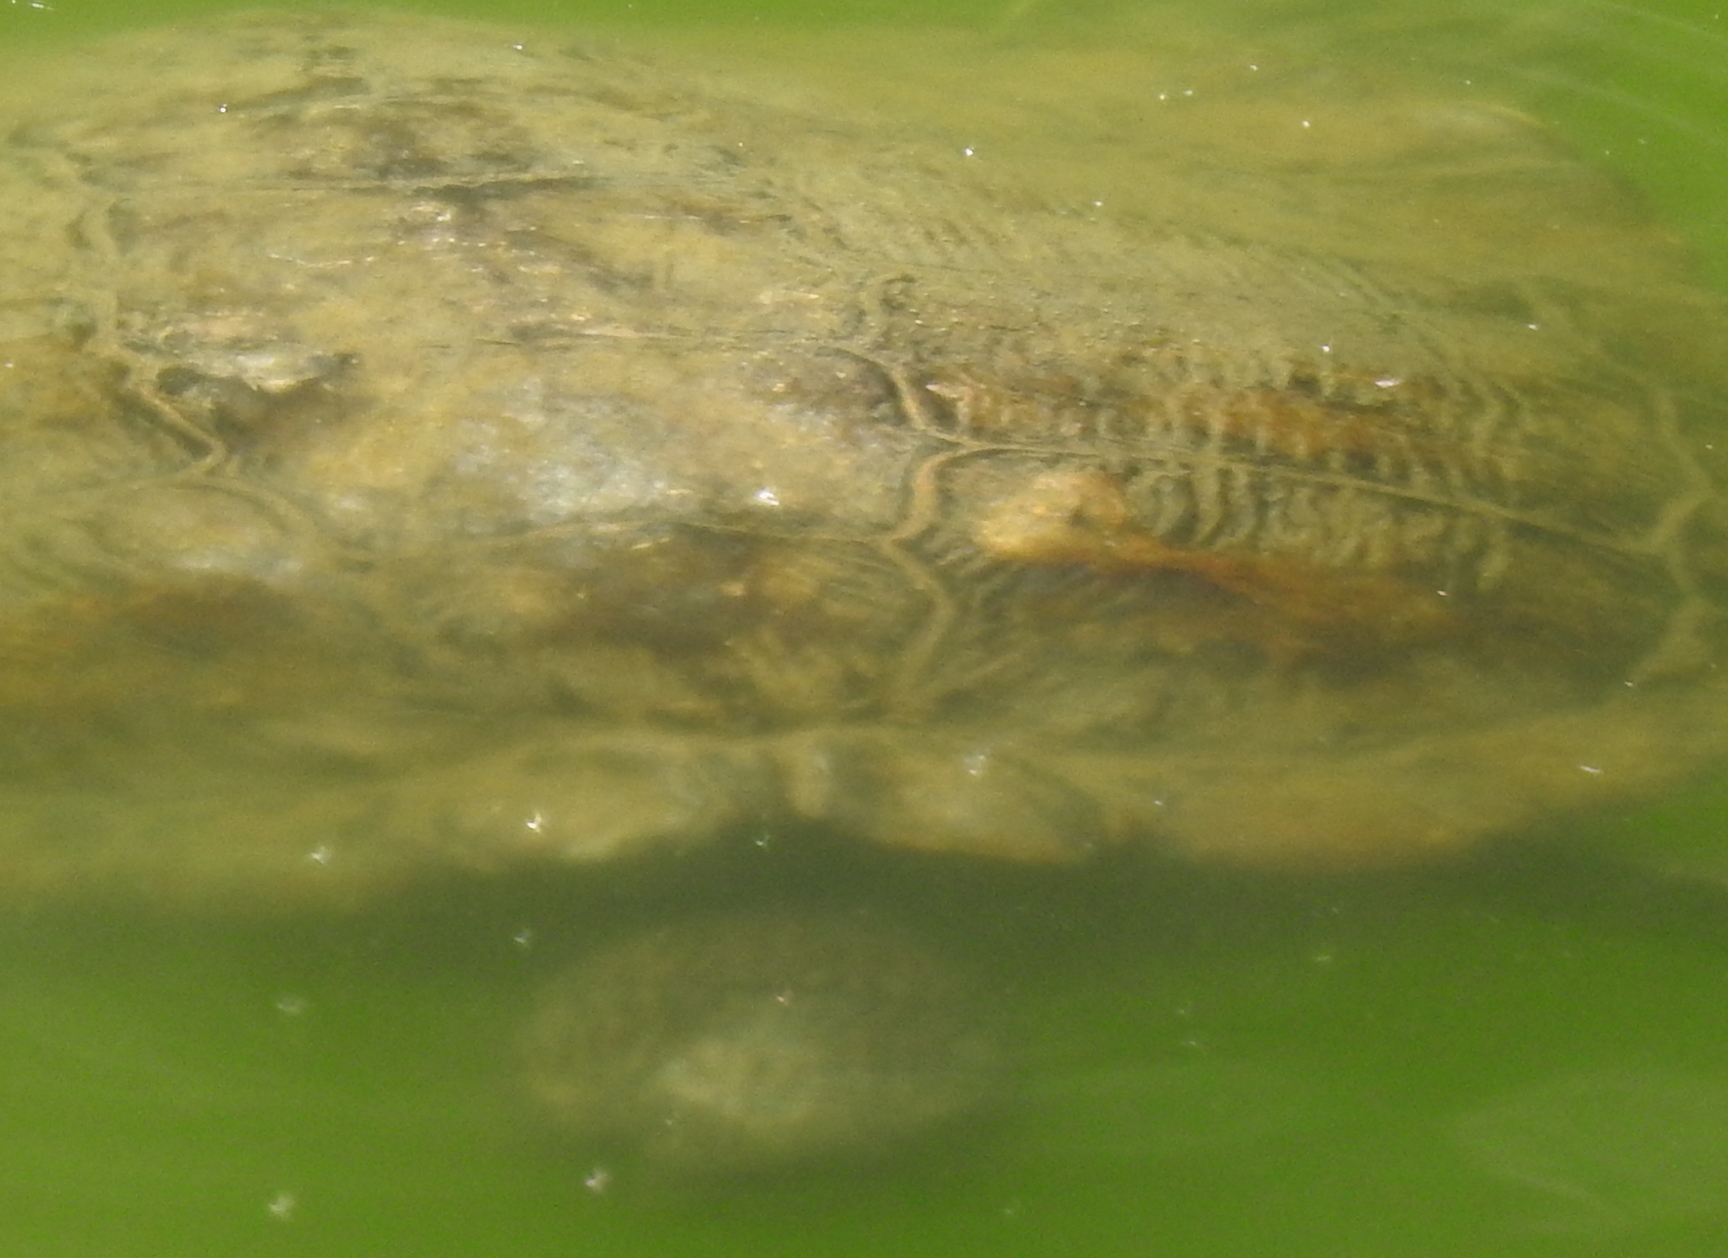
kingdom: Animalia
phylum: Chordata
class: Testudines
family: Emydidae
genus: Trachemys
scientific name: Trachemys scripta
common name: Slider
